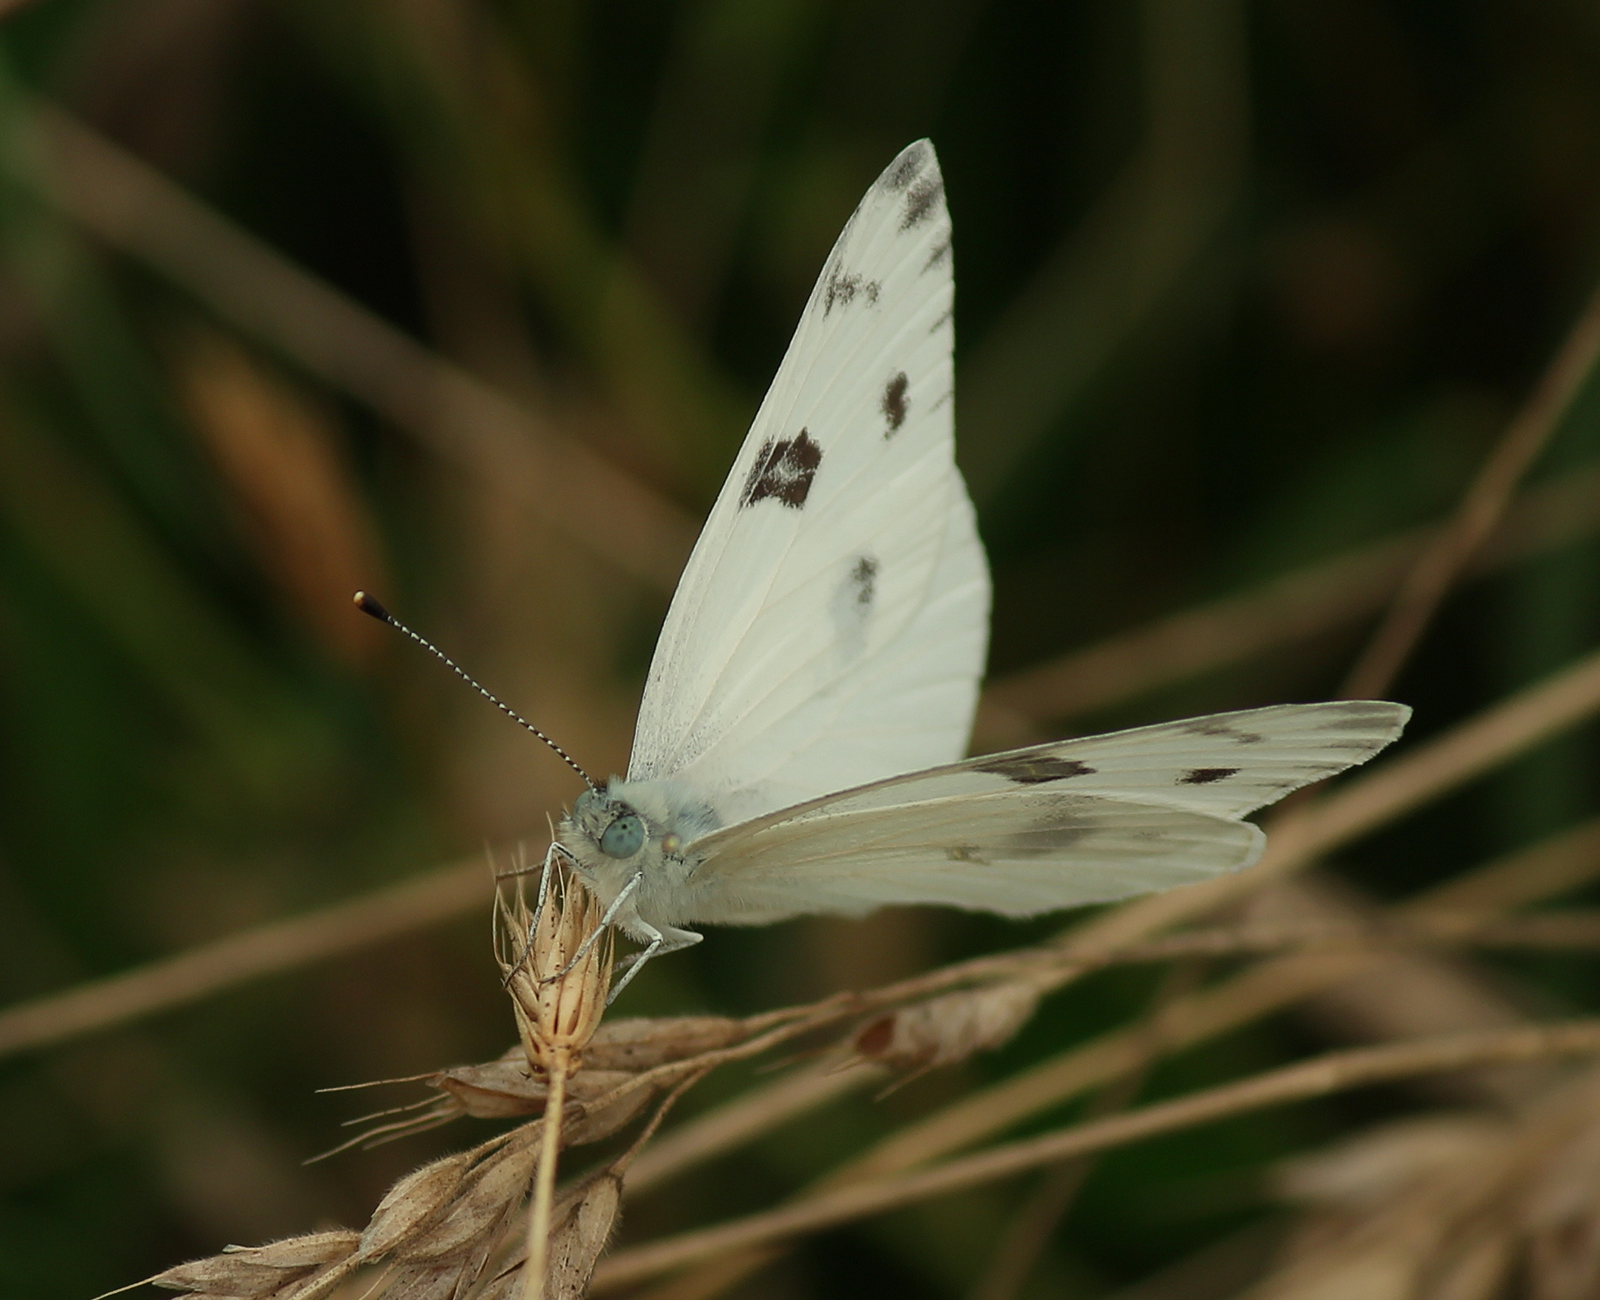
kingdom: Animalia
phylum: Arthropoda
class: Insecta
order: Lepidoptera
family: Pieridae
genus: Pontia
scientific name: Pontia protodice
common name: Checkered white
